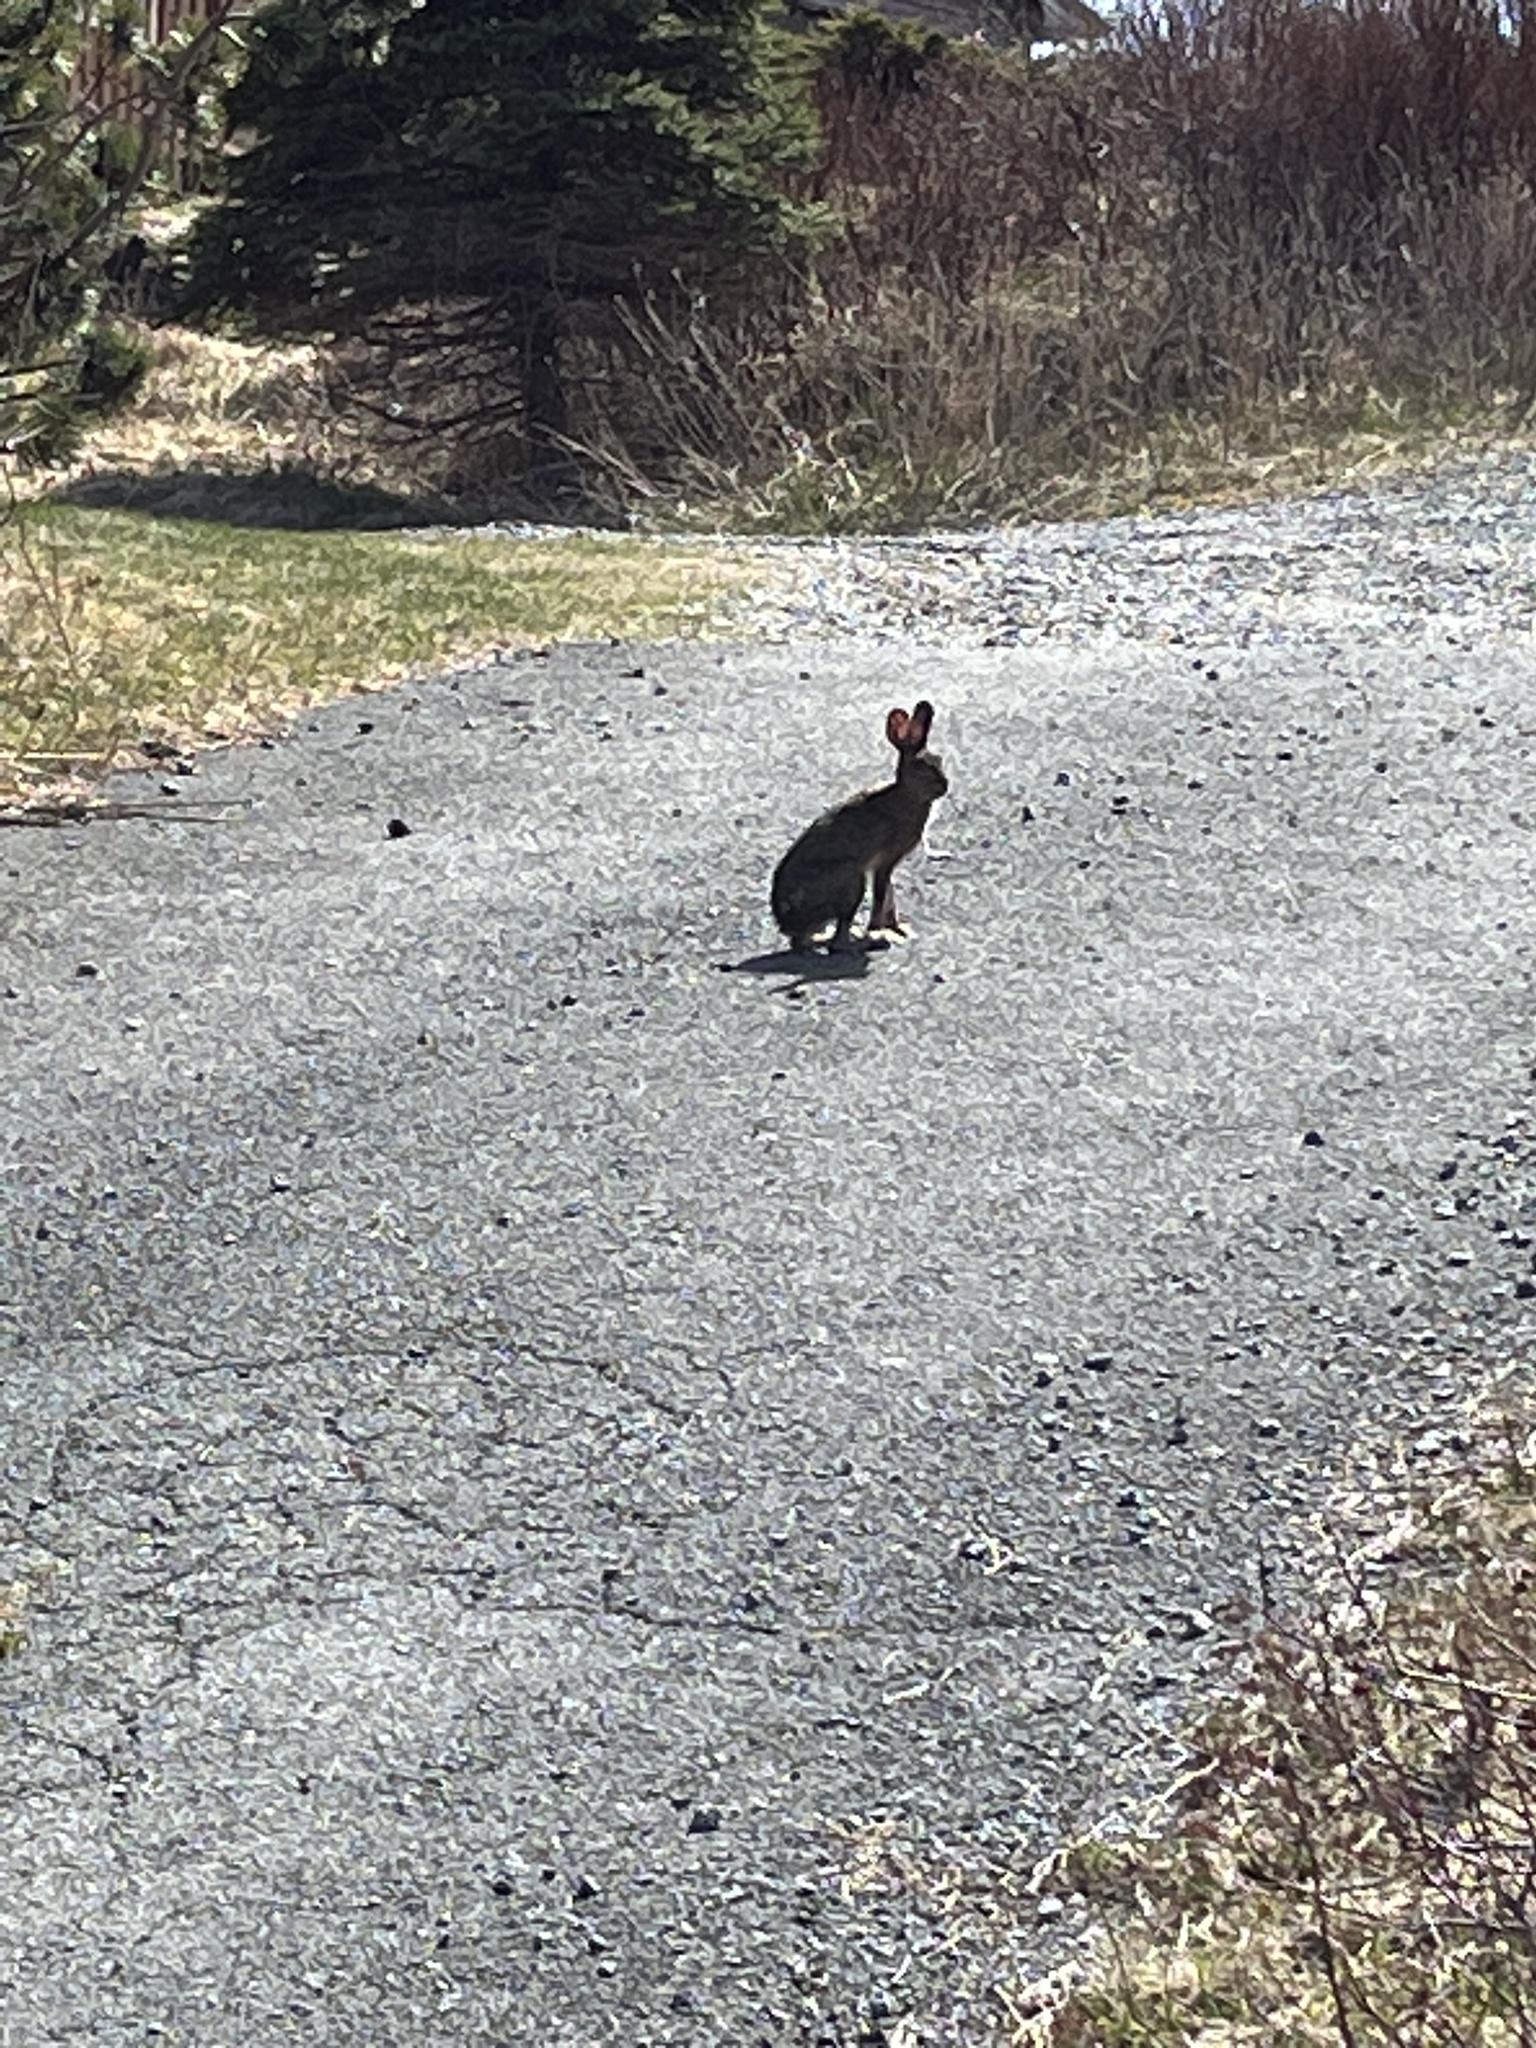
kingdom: Animalia
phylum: Chordata
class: Mammalia
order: Lagomorpha
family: Leporidae
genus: Lepus
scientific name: Lepus americanus
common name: Snowshoe hare
